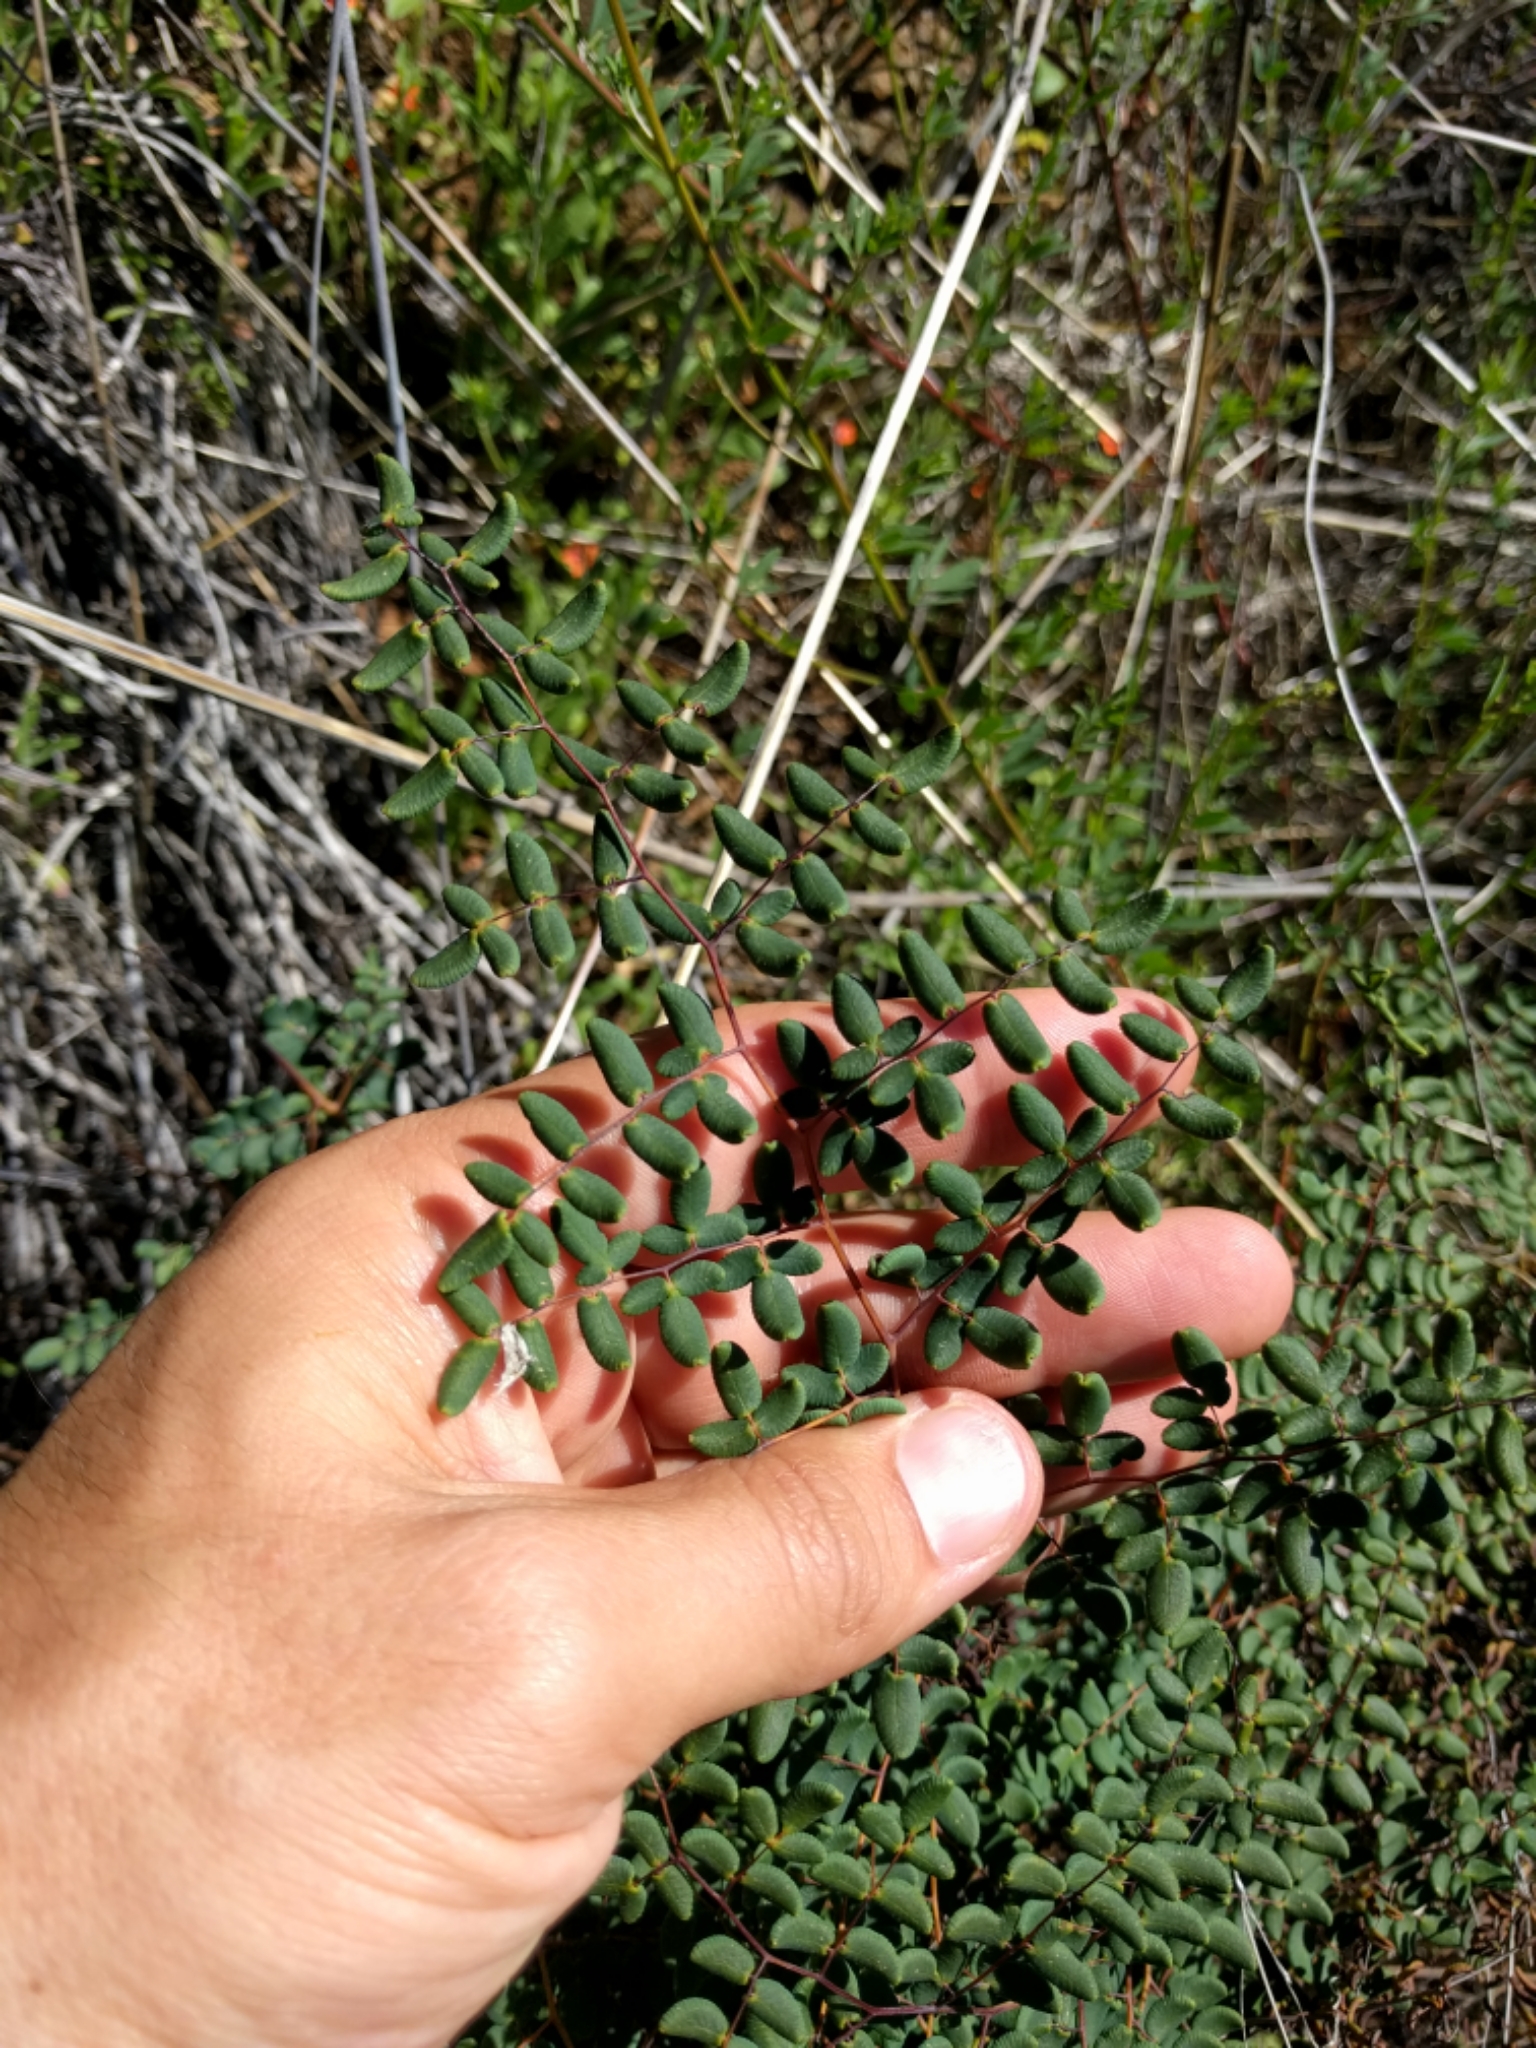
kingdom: Plantae
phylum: Tracheophyta
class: Polypodiopsida
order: Polypodiales
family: Pteridaceae
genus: Pellaea
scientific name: Pellaea andromedifolia
